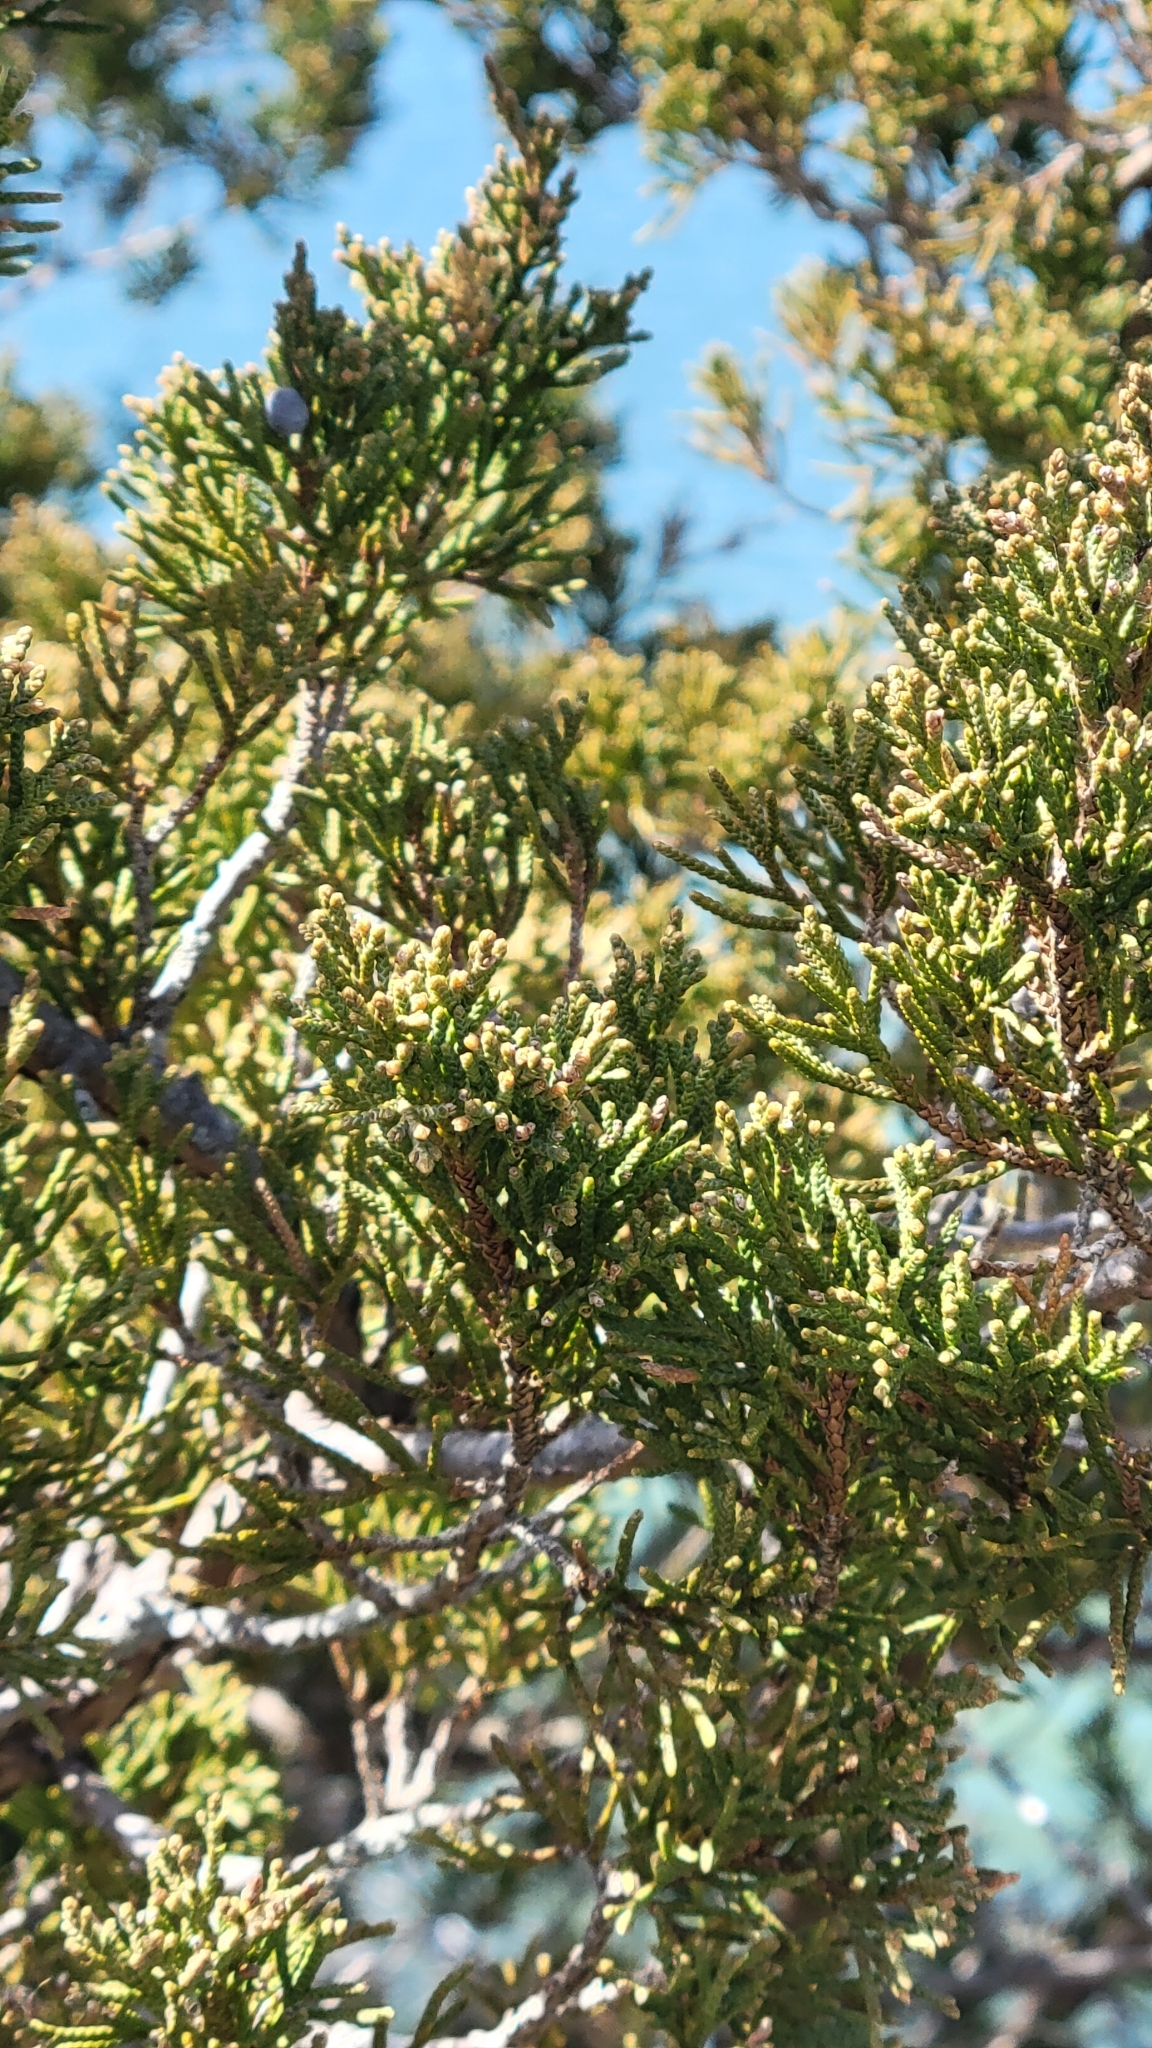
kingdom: Plantae
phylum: Tracheophyta
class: Pinopsida
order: Pinales
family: Cupressaceae
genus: Juniperus
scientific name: Juniperus virginiana
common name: Red juniper
